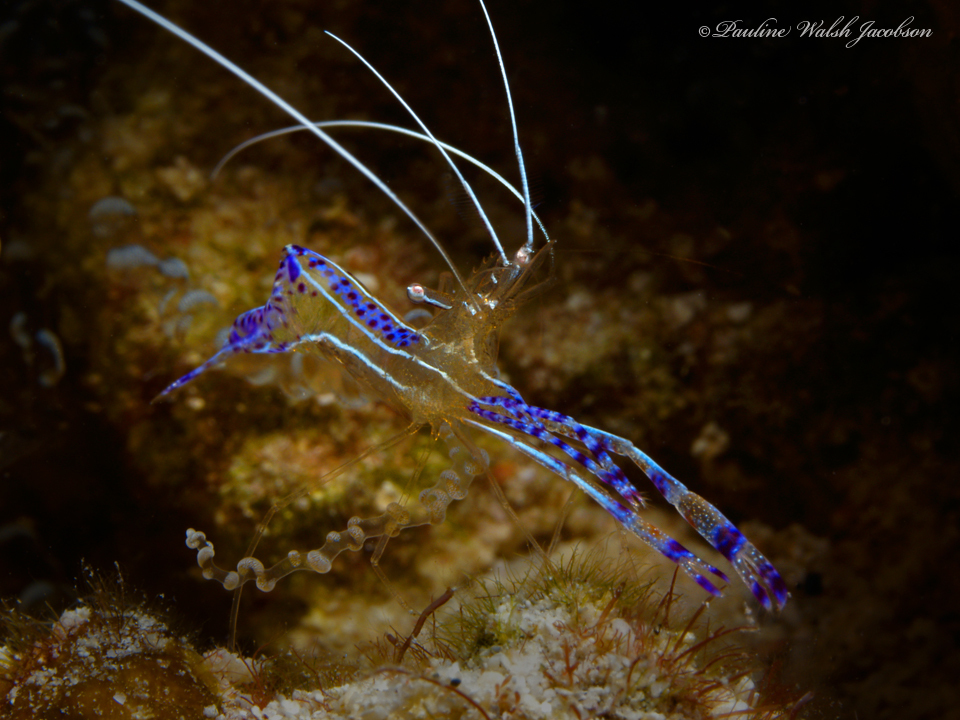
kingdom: Animalia
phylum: Arthropoda
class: Malacostraca
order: Decapoda
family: Palaemonidae
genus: Ancylomenes
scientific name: Ancylomenes pedersoni
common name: Pederson's cleaning shrimp
